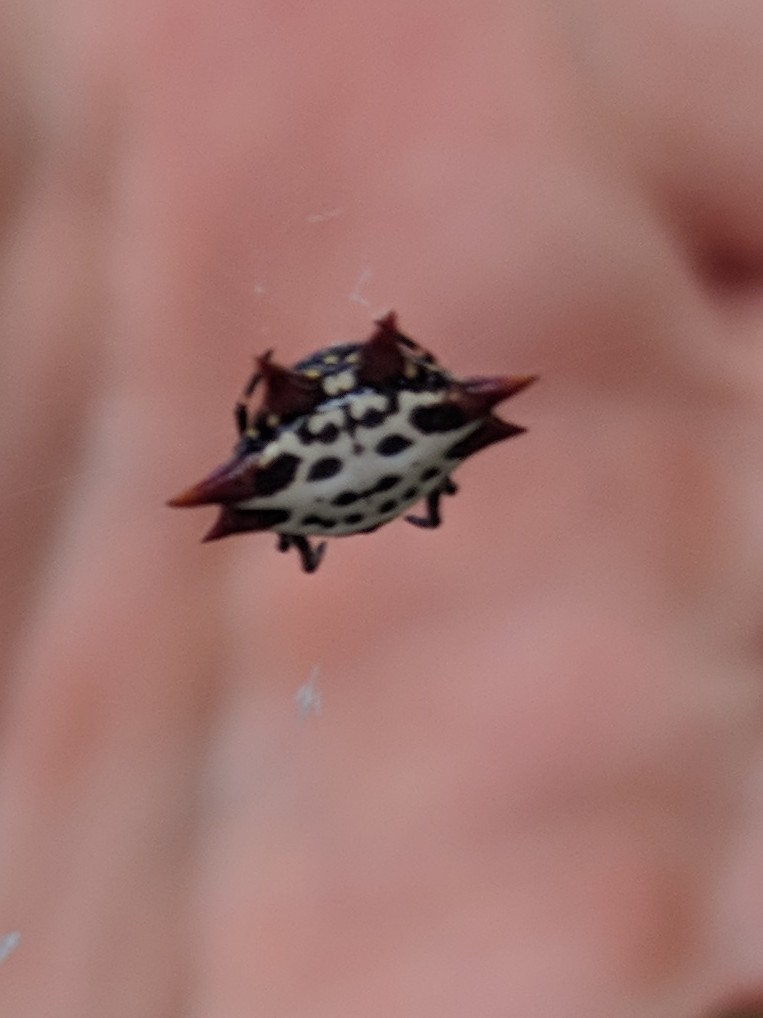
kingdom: Animalia
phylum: Arthropoda
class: Arachnida
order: Araneae
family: Araneidae
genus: Gasteracantha
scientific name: Gasteracantha cancriformis
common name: Orb weavers
